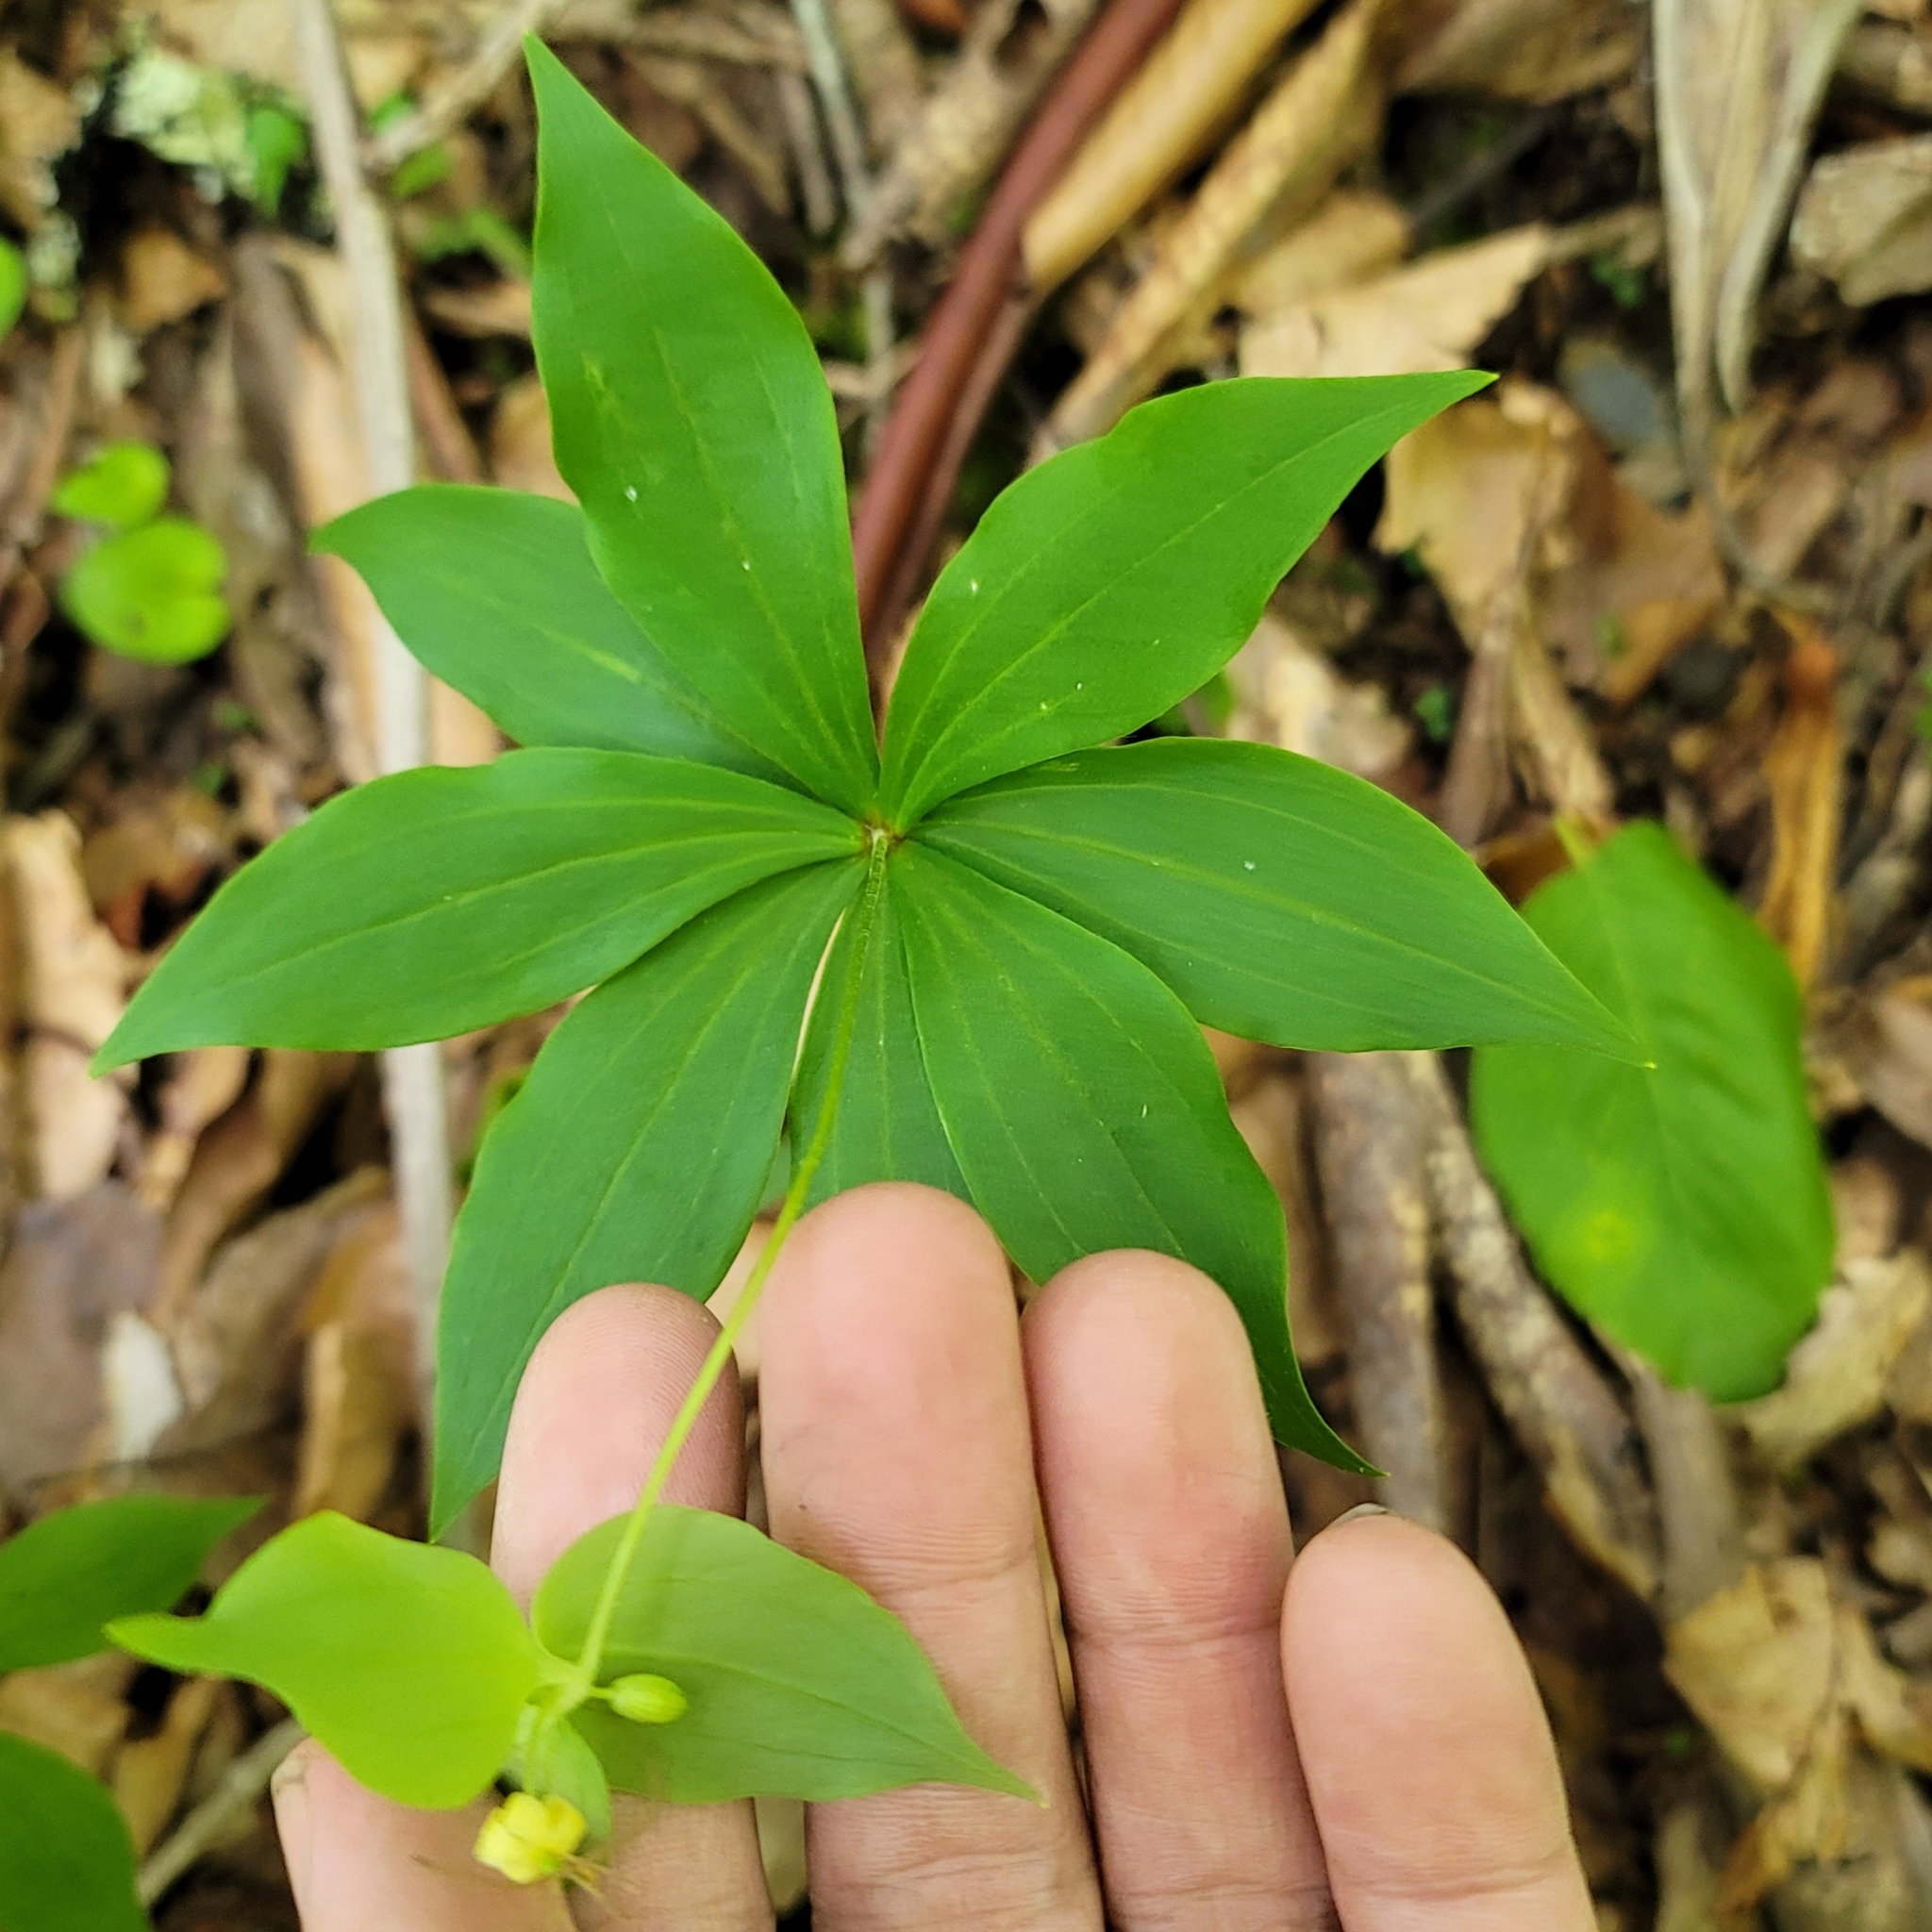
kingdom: Plantae
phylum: Tracheophyta
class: Liliopsida
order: Liliales
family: Liliaceae
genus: Medeola
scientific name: Medeola virginiana
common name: Indian cucumber-root
